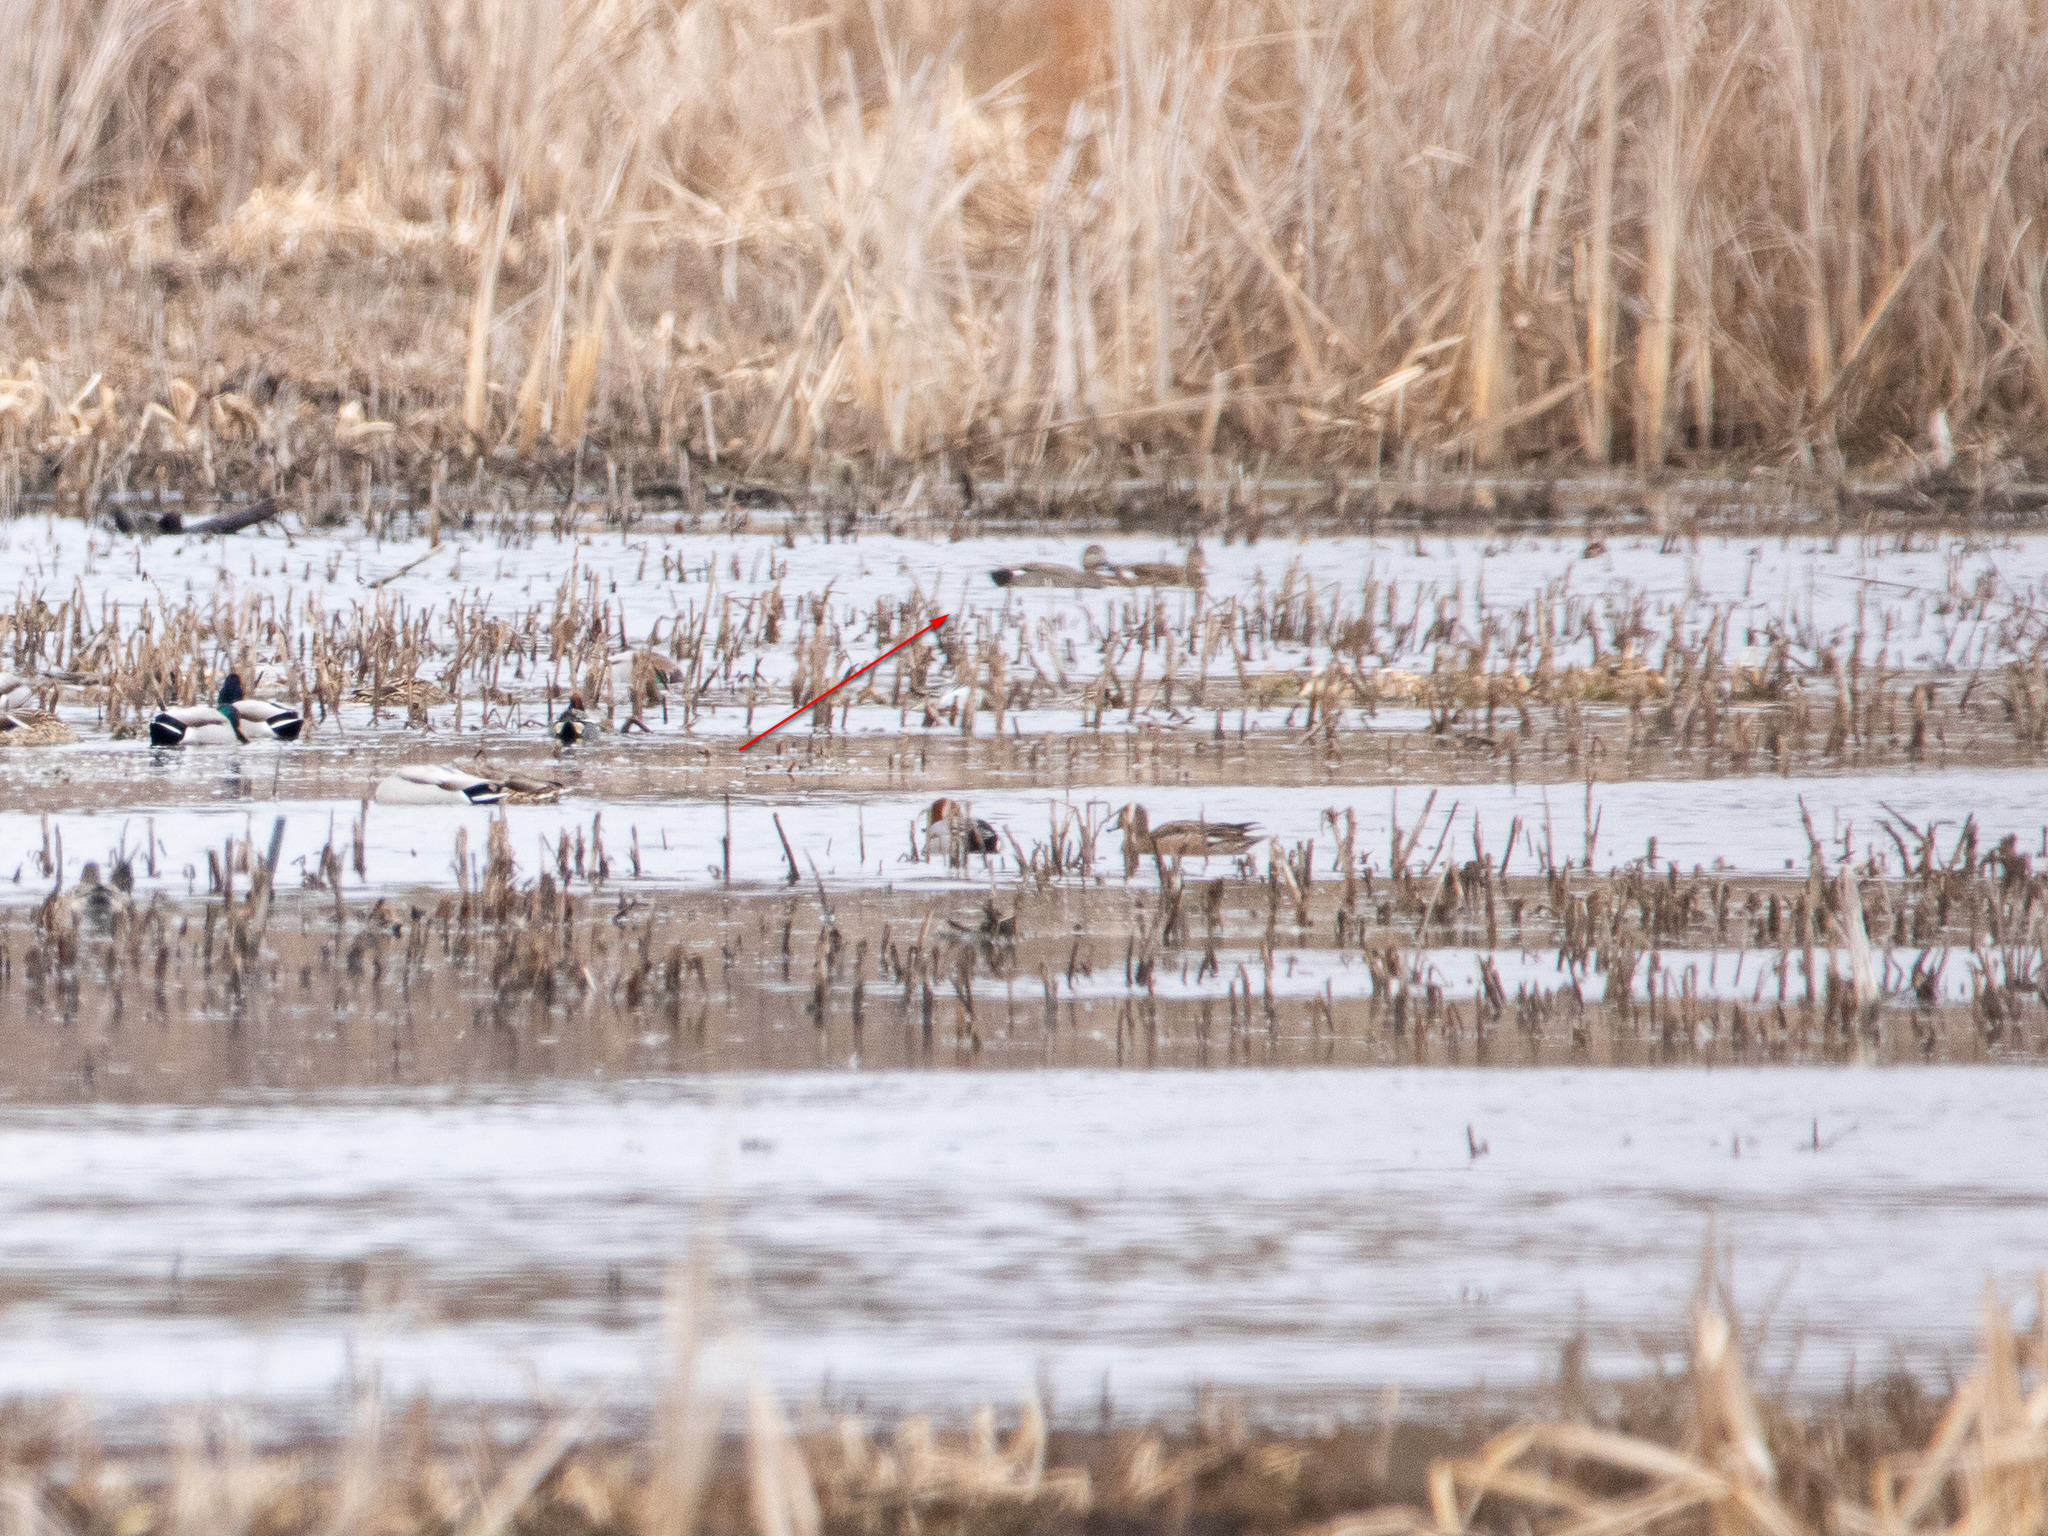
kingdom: Animalia
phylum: Chordata
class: Aves
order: Anseriformes
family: Anatidae
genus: Mareca
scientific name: Mareca strepera
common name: Gadwall
